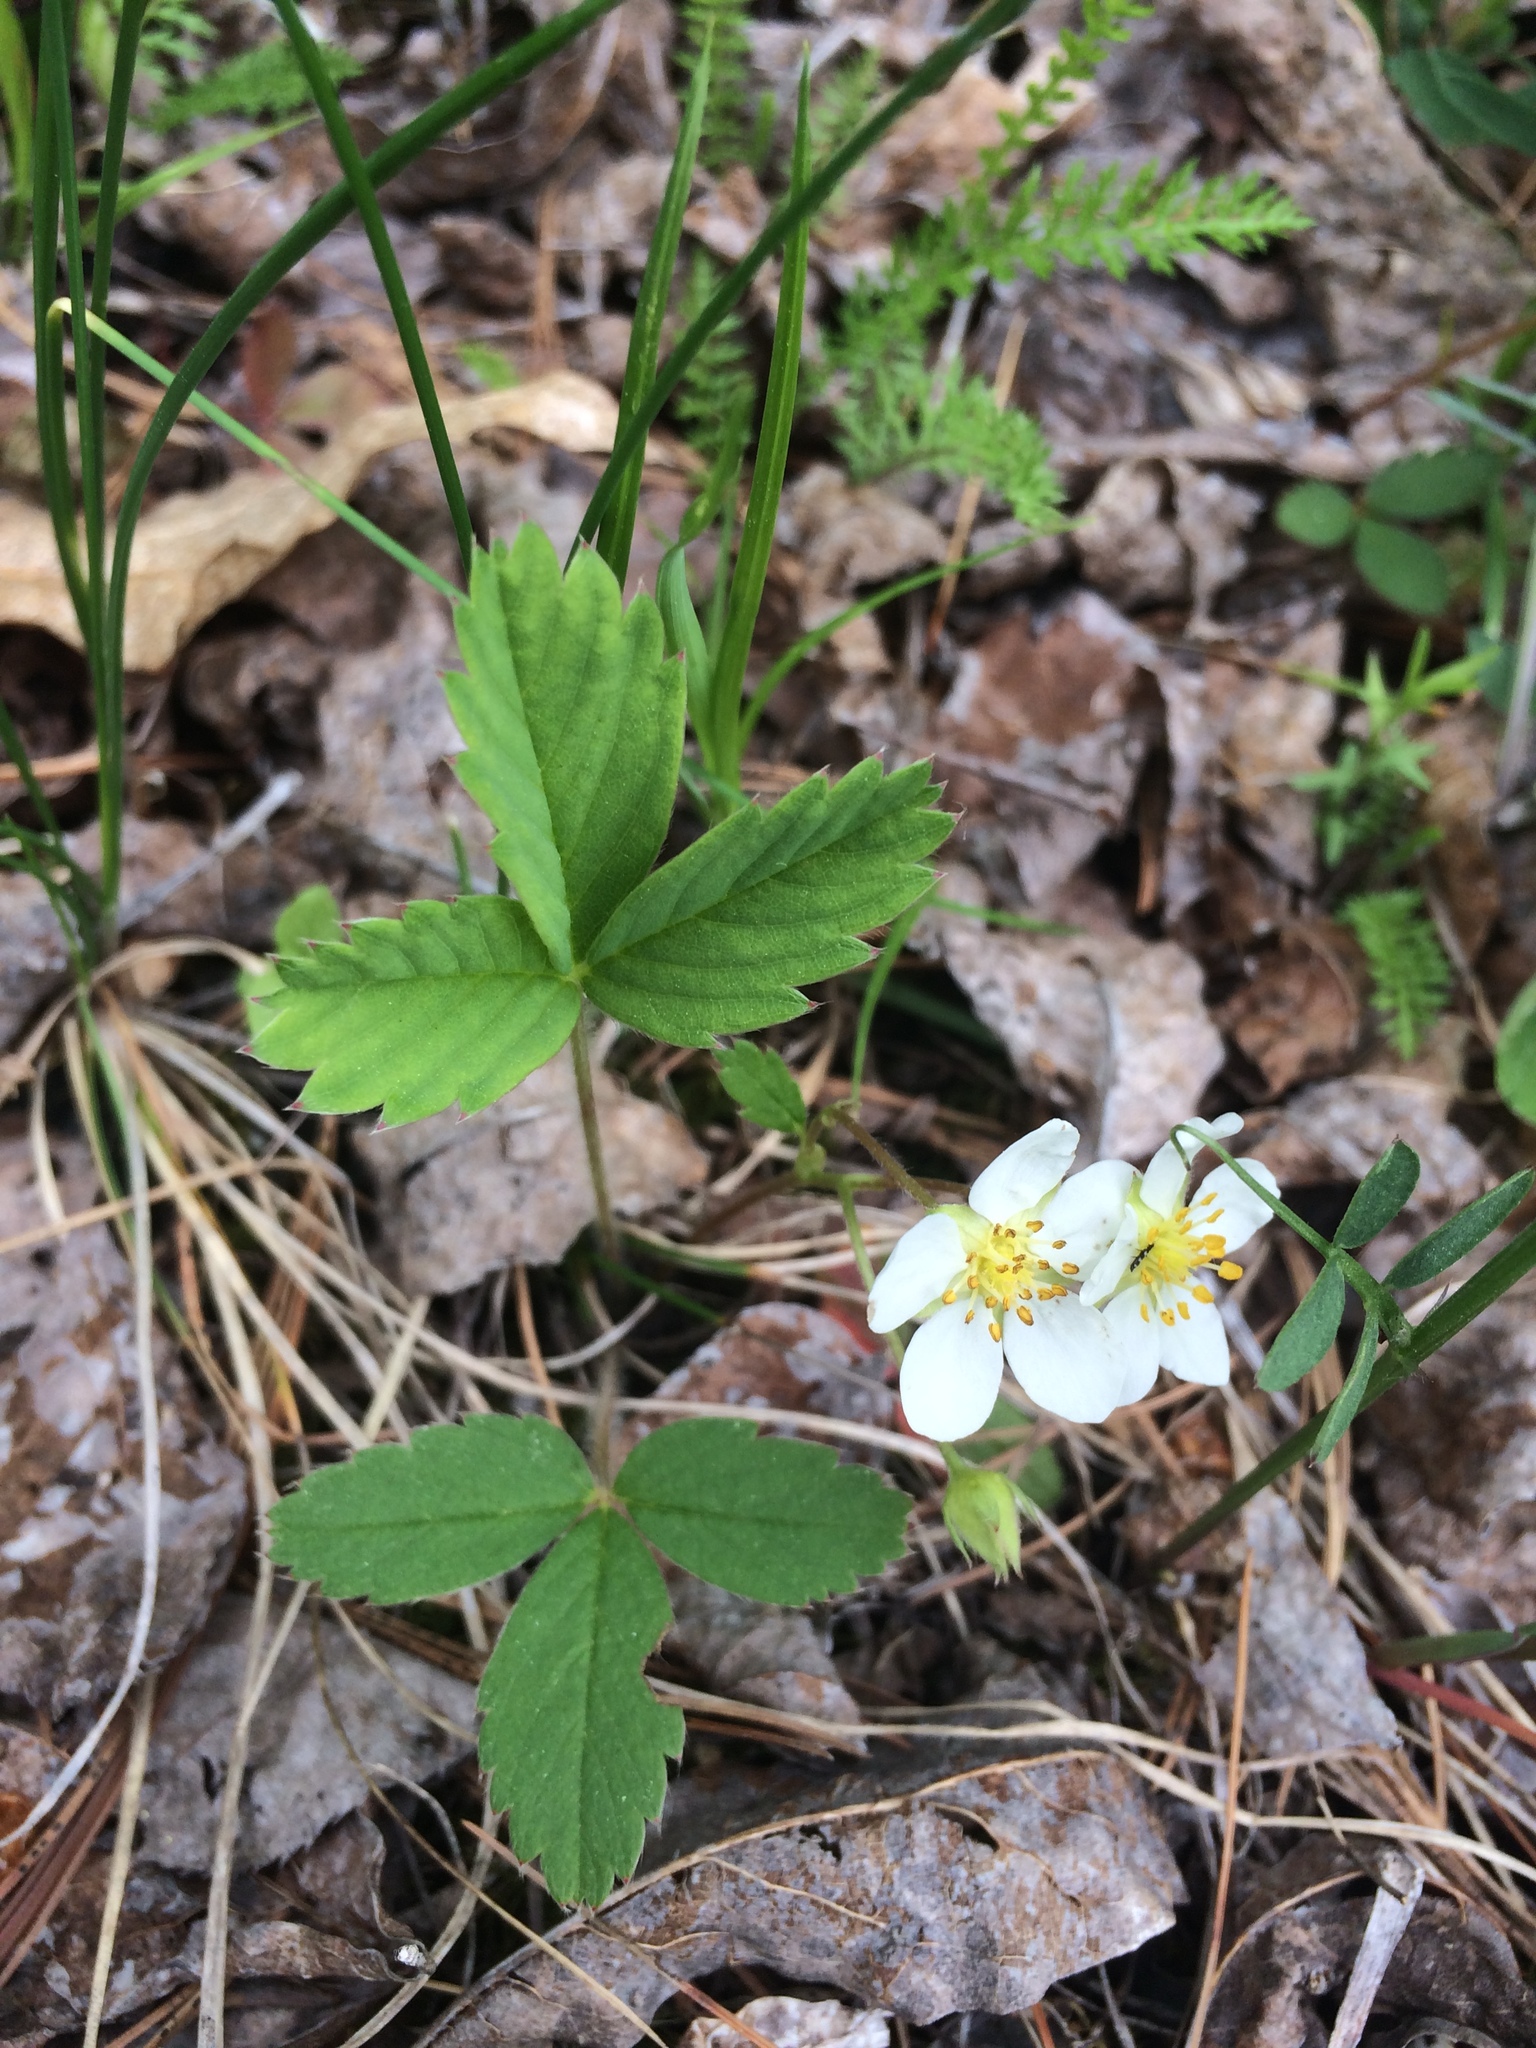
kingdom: Plantae
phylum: Tracheophyta
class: Magnoliopsida
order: Rosales
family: Rosaceae
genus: Fragaria
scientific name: Fragaria virginiana
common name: Thickleaved wild strawberry
